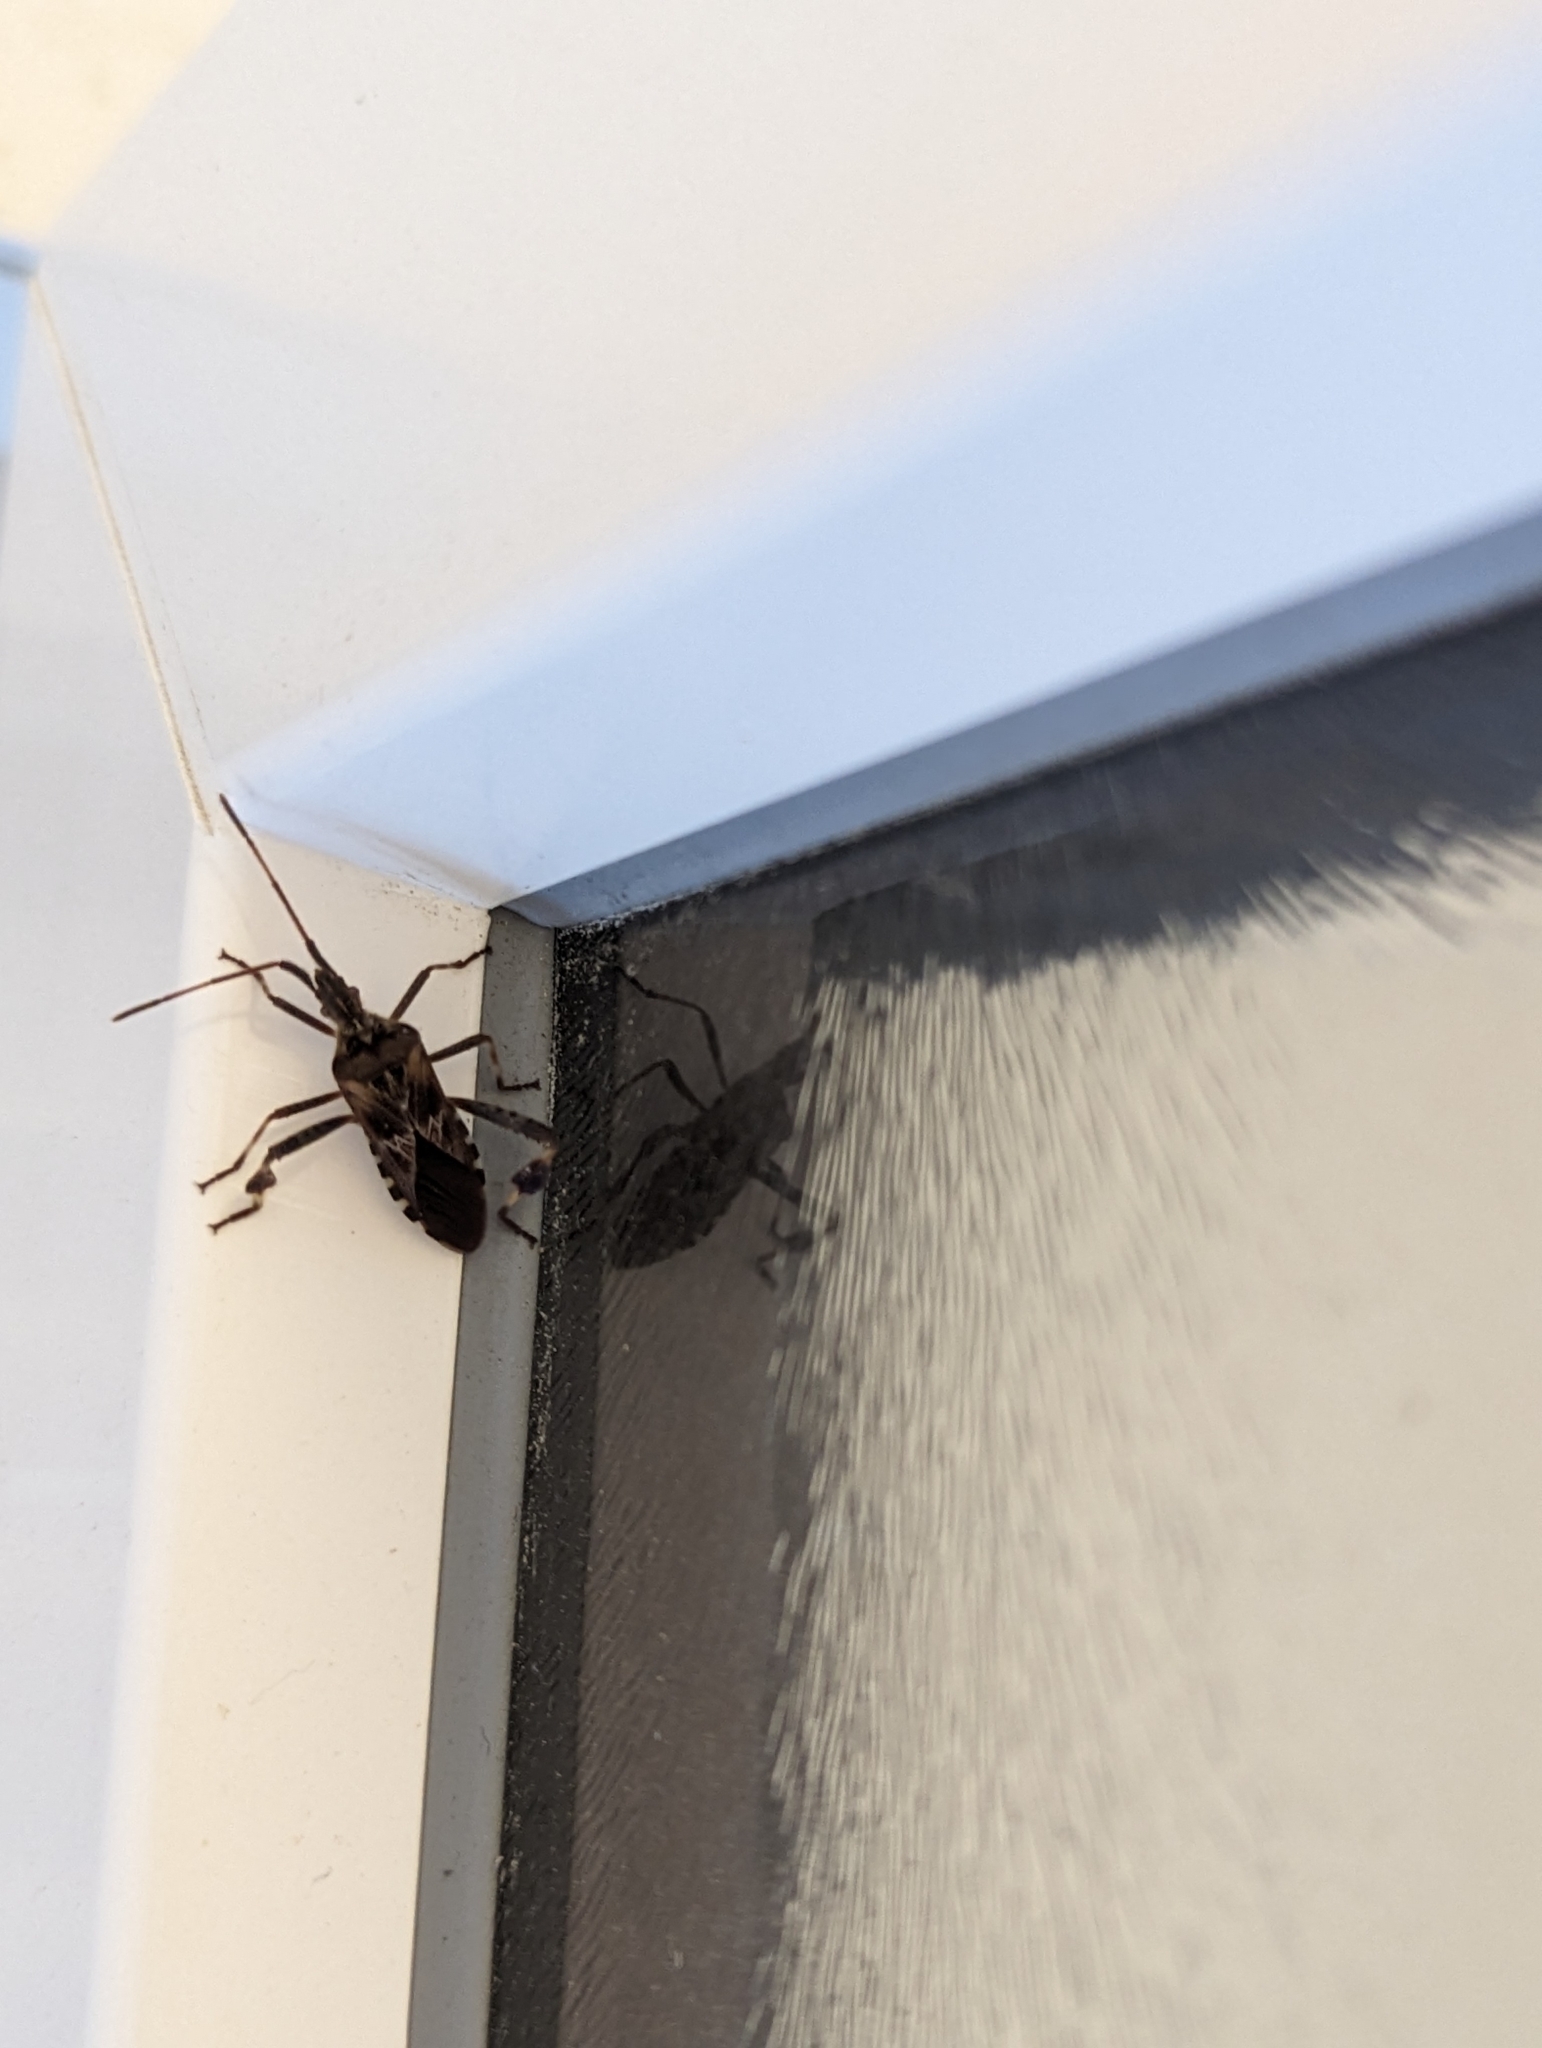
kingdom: Animalia
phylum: Arthropoda
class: Insecta
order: Hemiptera
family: Coreidae
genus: Leptoglossus
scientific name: Leptoglossus occidentalis
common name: Western conifer-seed bug
